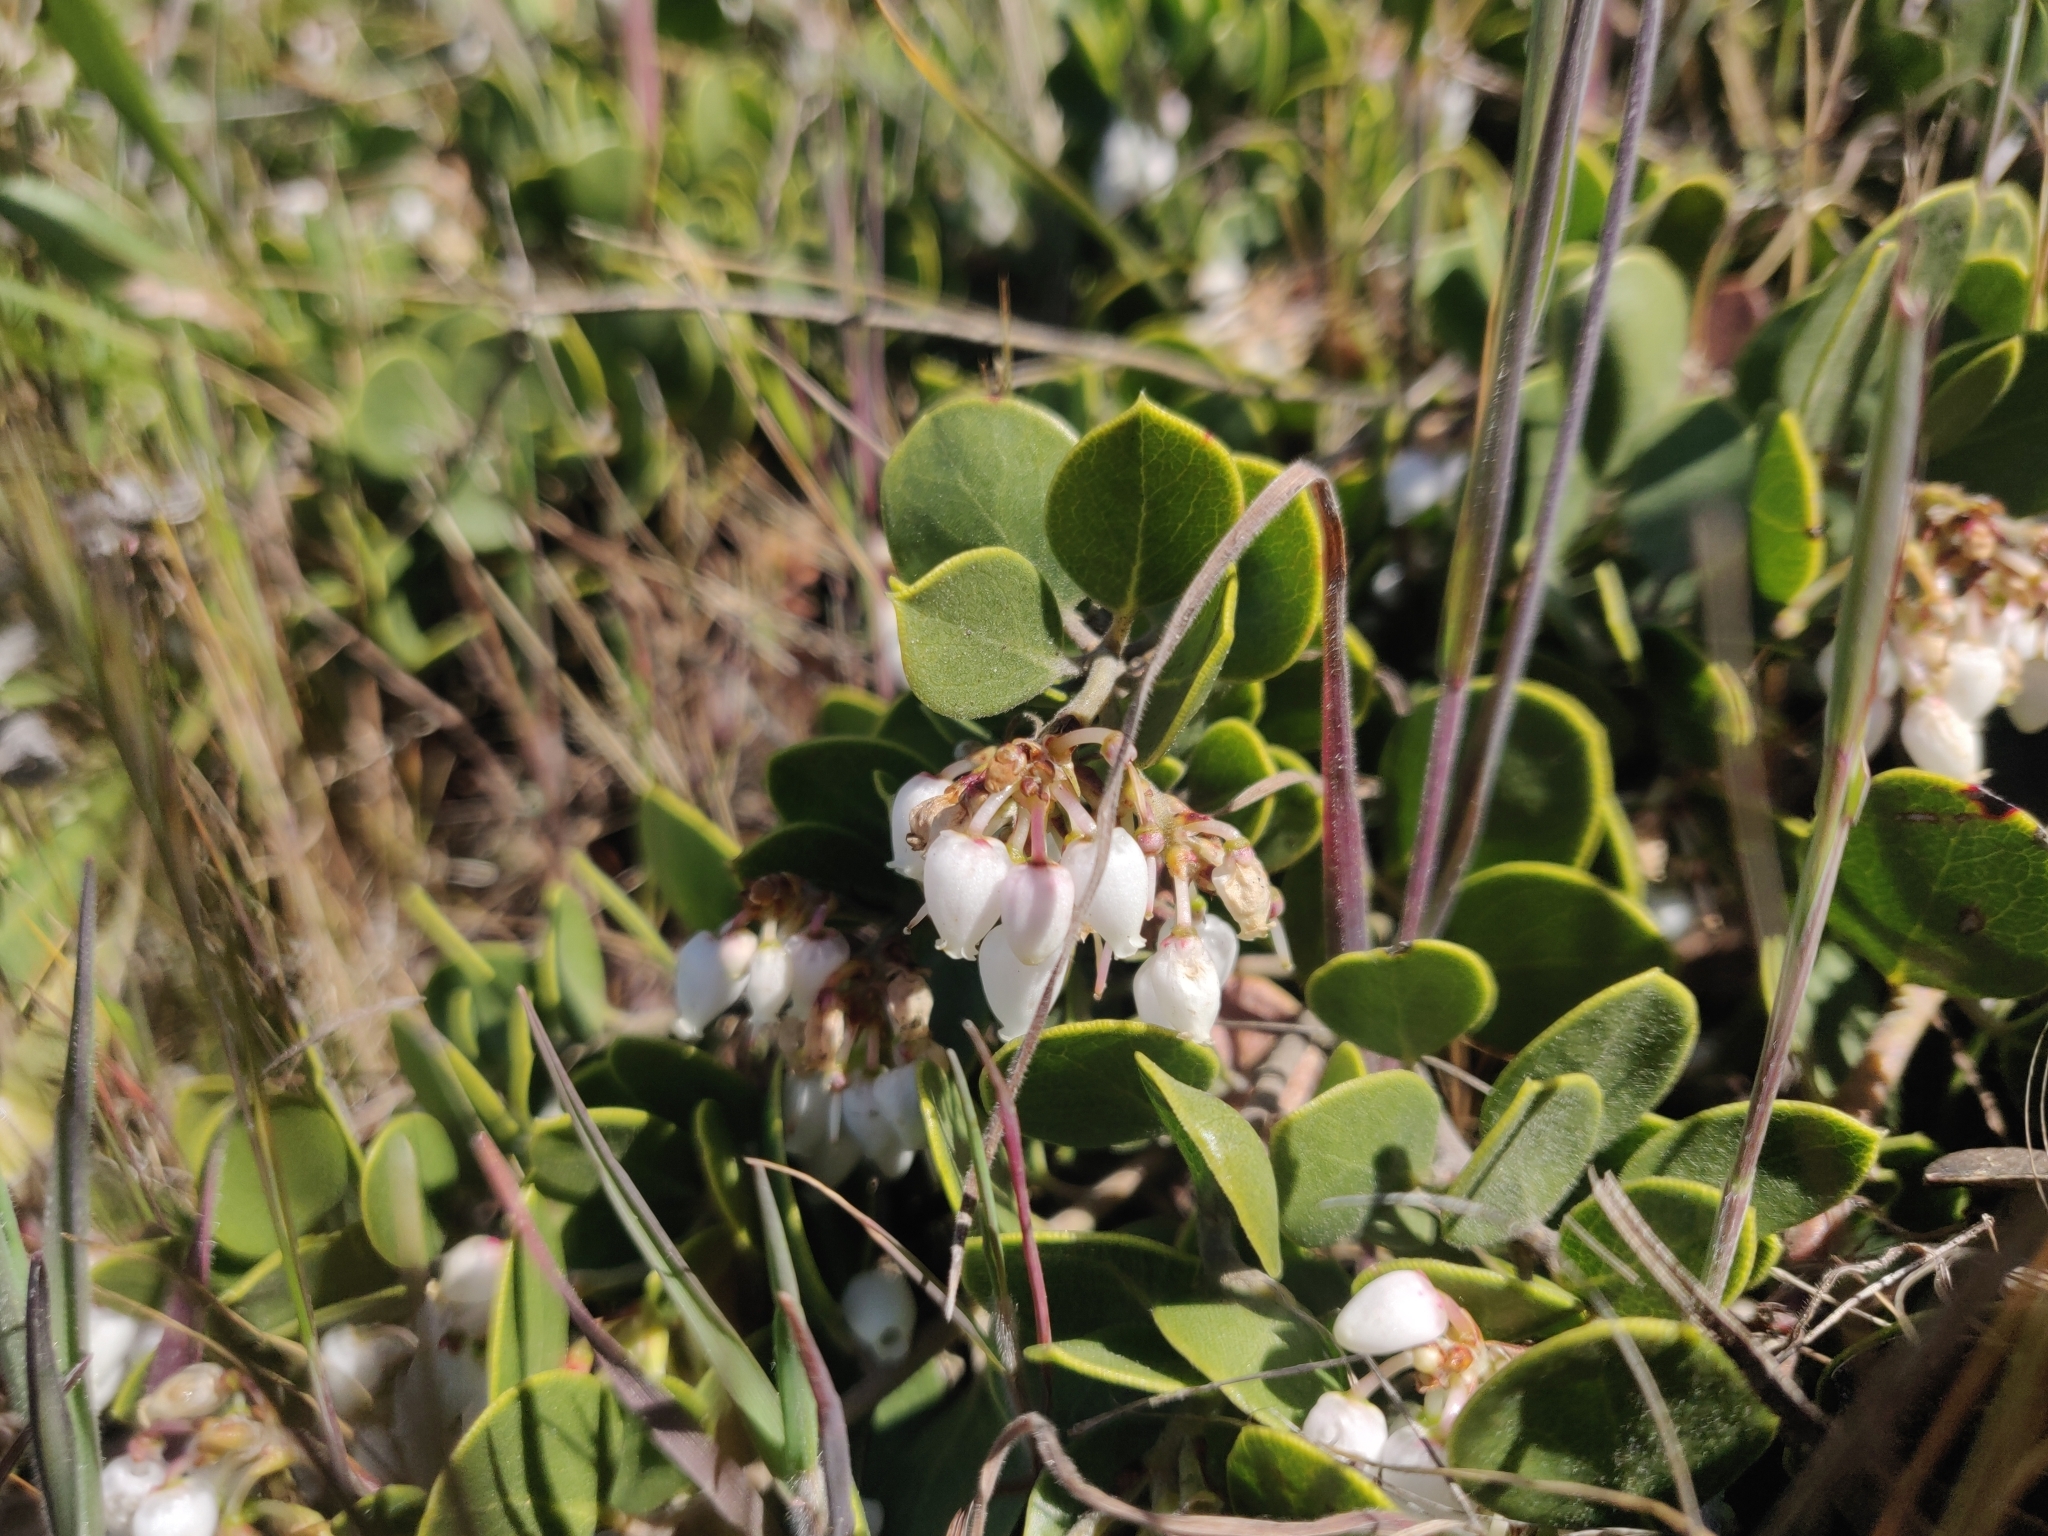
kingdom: Plantae
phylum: Tracheophyta
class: Magnoliopsida
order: Ericales
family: Ericaceae
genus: Arctostaphylos
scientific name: Arctostaphylos mewukka
